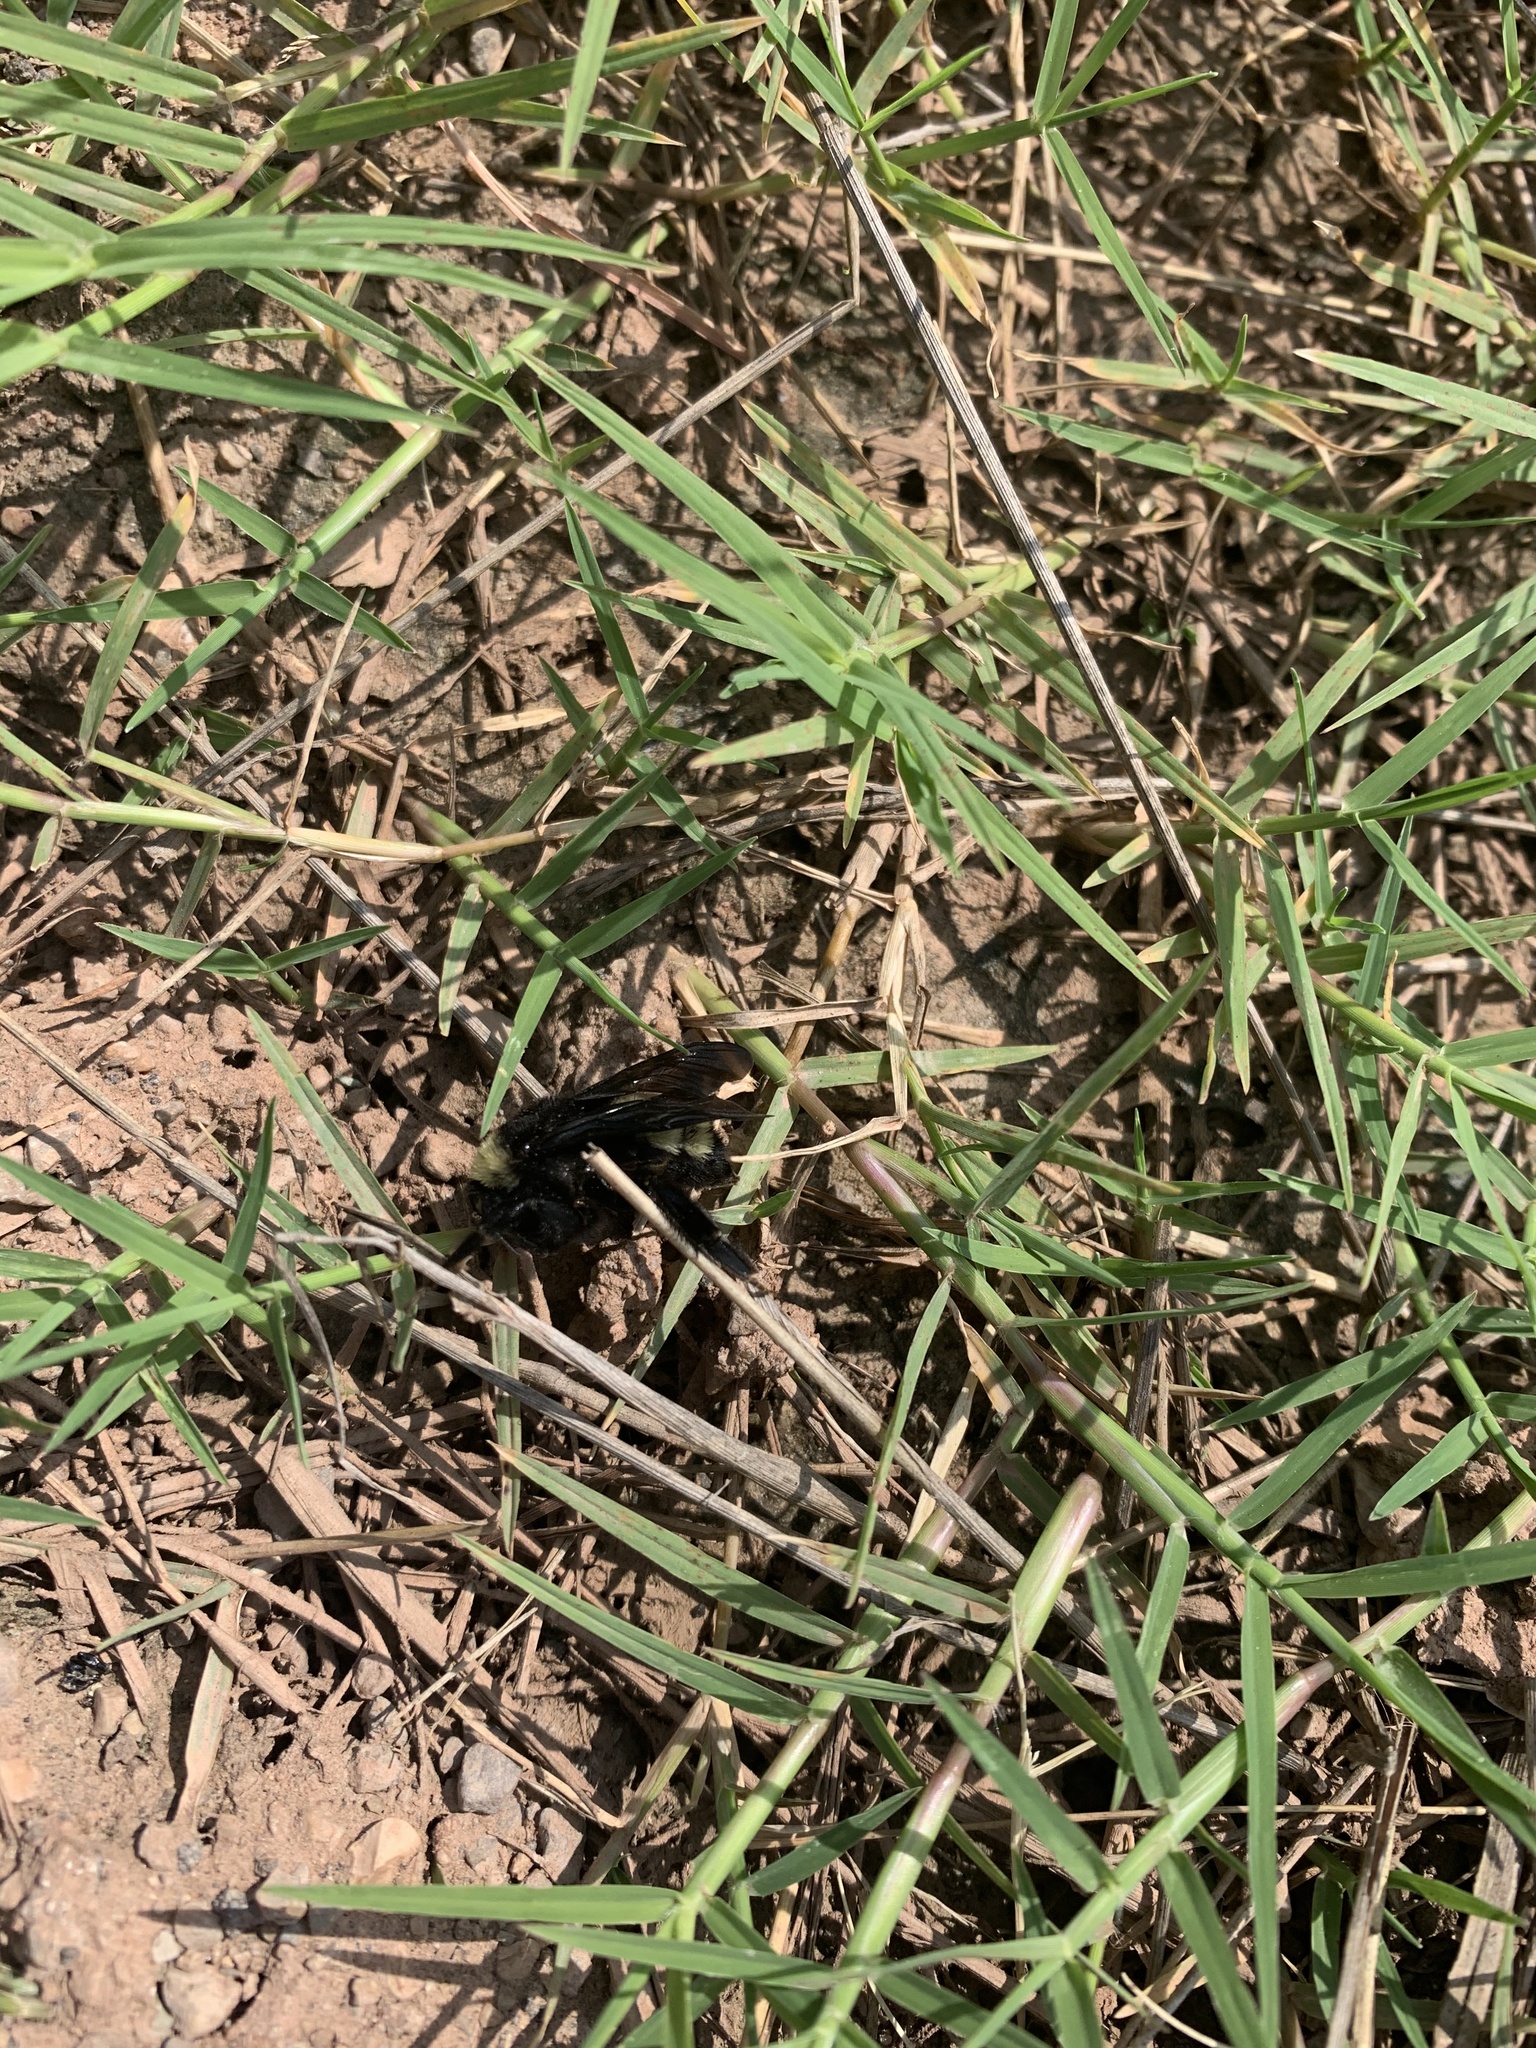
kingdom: Animalia
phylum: Arthropoda
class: Insecta
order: Hymenoptera
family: Apidae
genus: Bombus
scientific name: Bombus pensylvanicus
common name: Bumble bee
